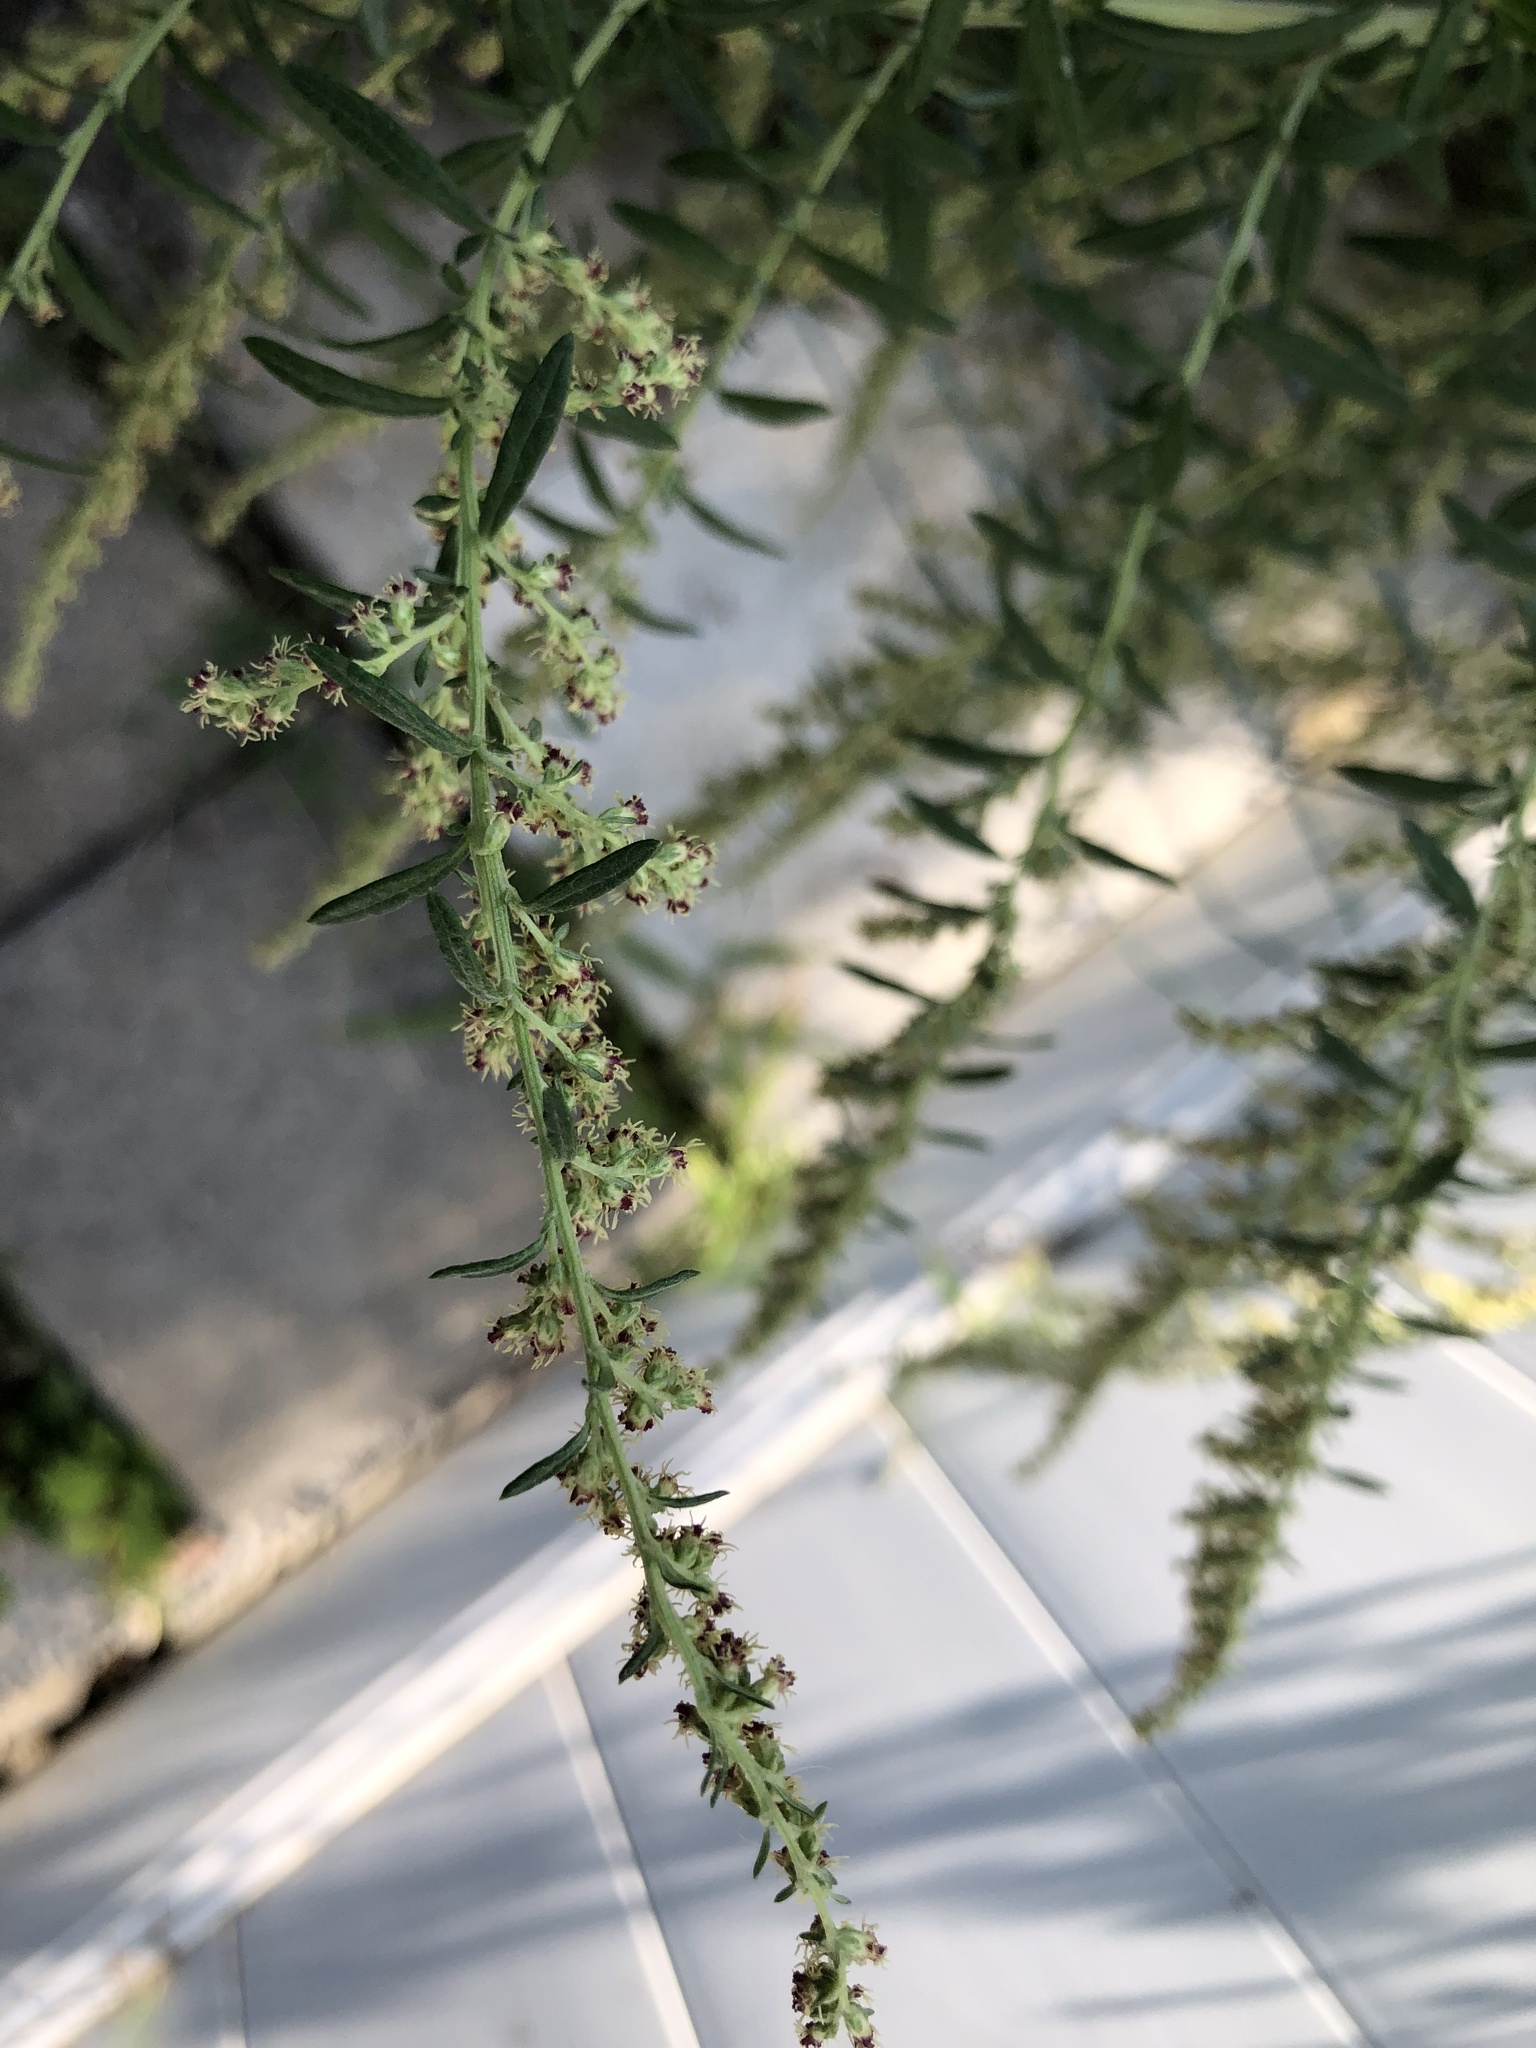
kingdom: Plantae
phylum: Tracheophyta
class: Magnoliopsida
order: Asterales
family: Asteraceae
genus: Artemisia
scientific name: Artemisia vulgaris
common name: Mugwort
